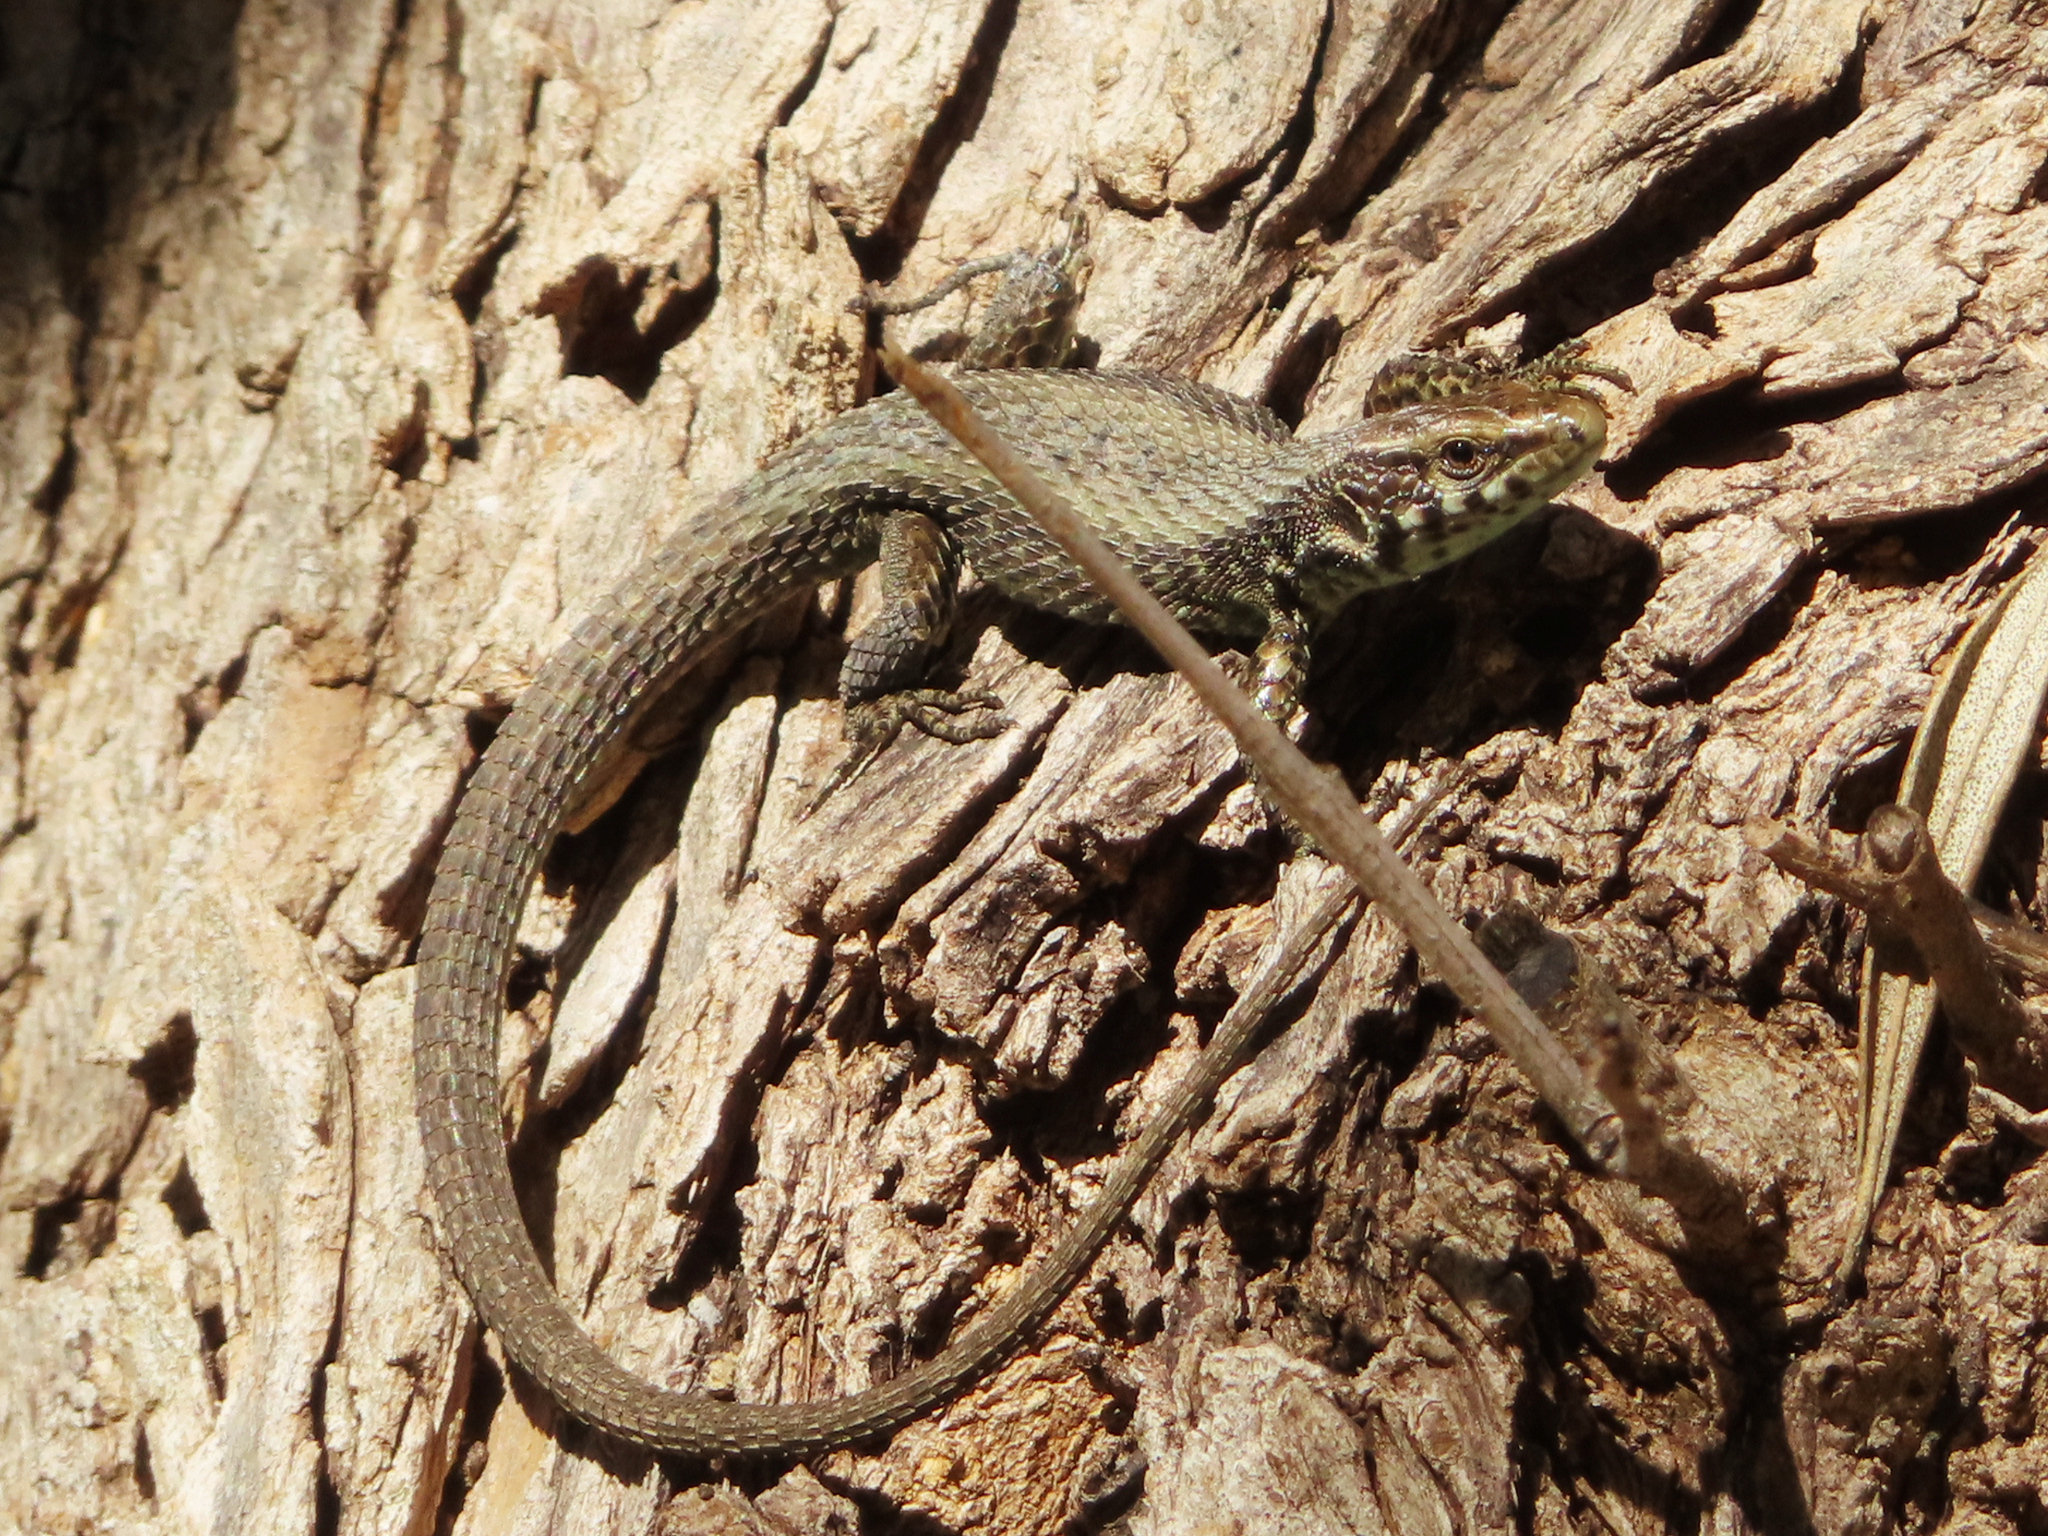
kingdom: Animalia
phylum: Chordata
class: Squamata
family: Lacertidae
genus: Algyroides
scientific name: Algyroides moreoticus
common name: Greek algyroides
